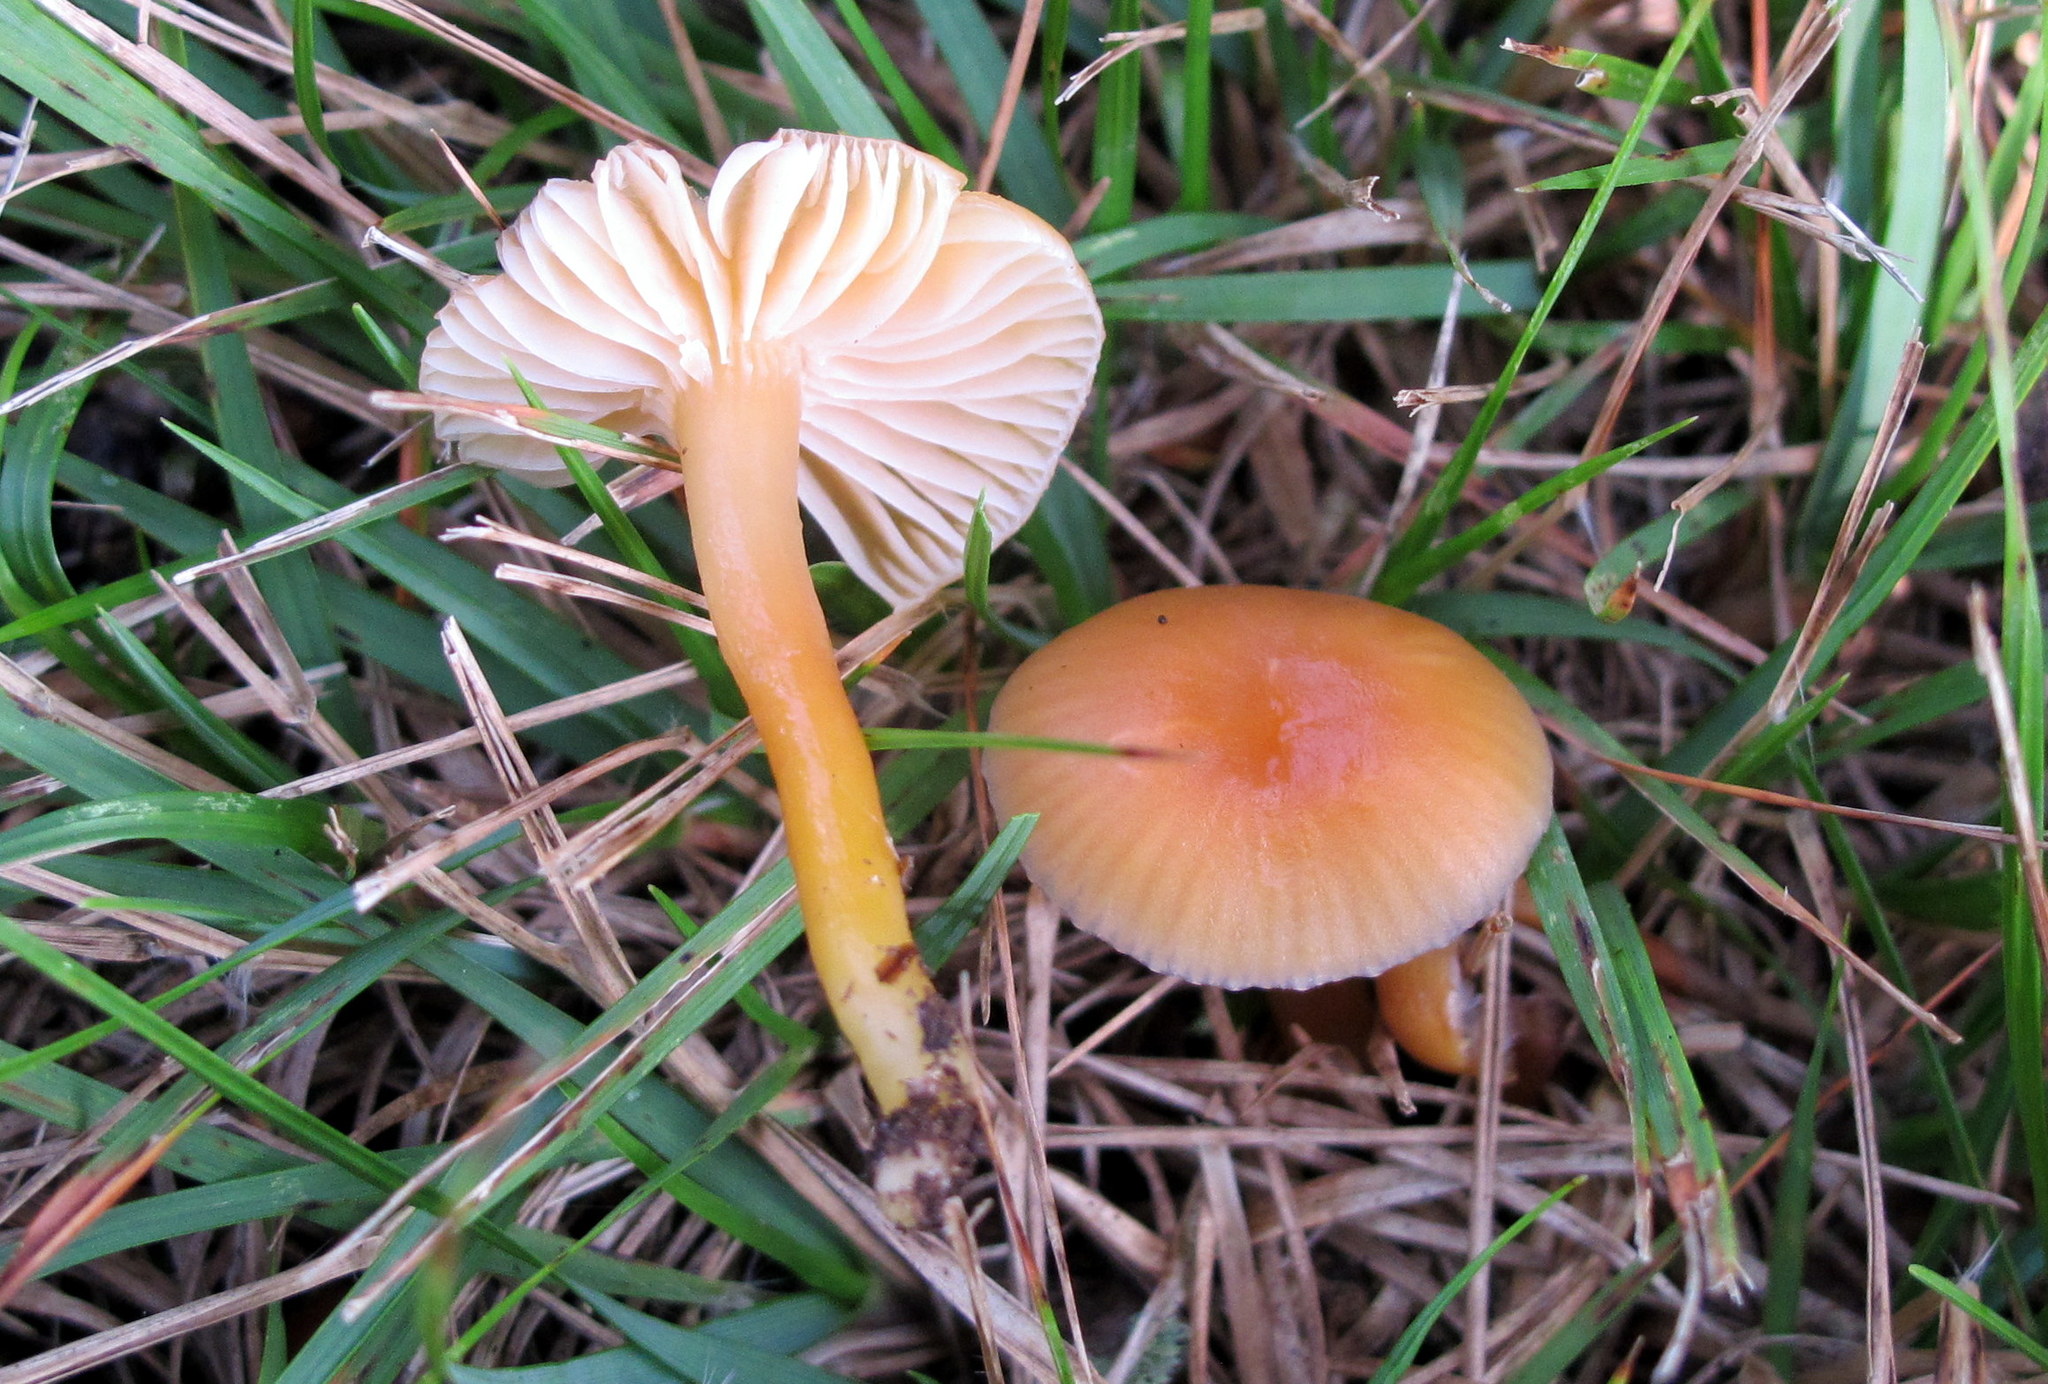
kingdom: Fungi
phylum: Basidiomycota
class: Agaricomycetes
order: Agaricales
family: Hygrophoraceae
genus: Gliophorus
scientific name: Gliophorus laetus
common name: Heath waxcap
